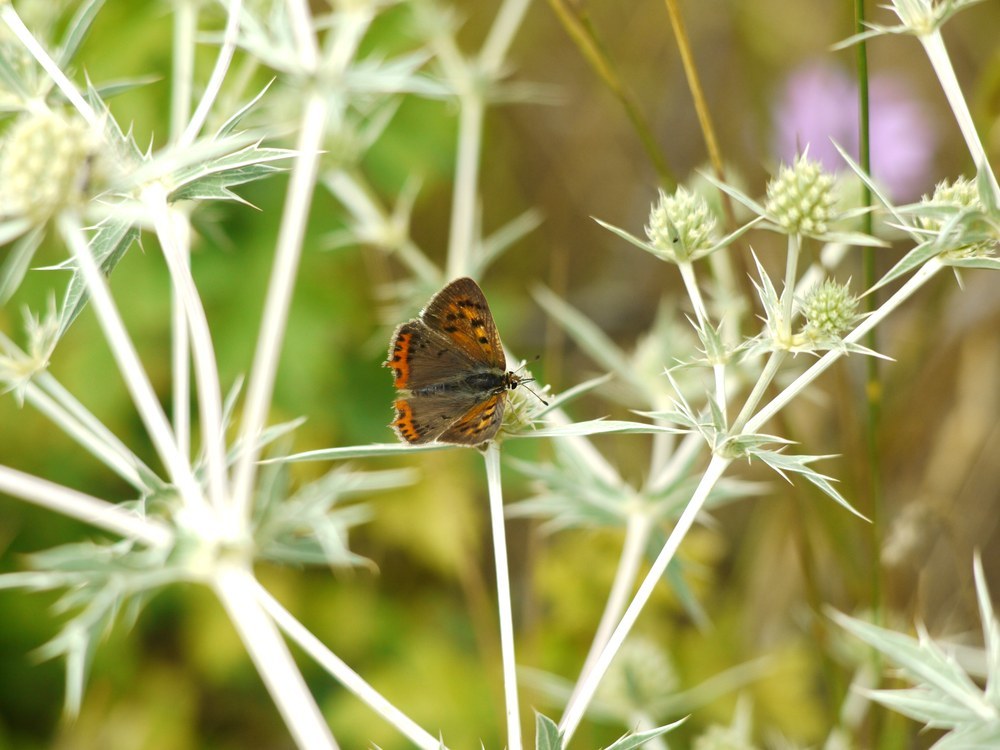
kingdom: Animalia
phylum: Arthropoda
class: Insecta
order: Lepidoptera
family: Lycaenidae
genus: Lycaena
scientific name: Lycaena phlaeas
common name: Small copper
